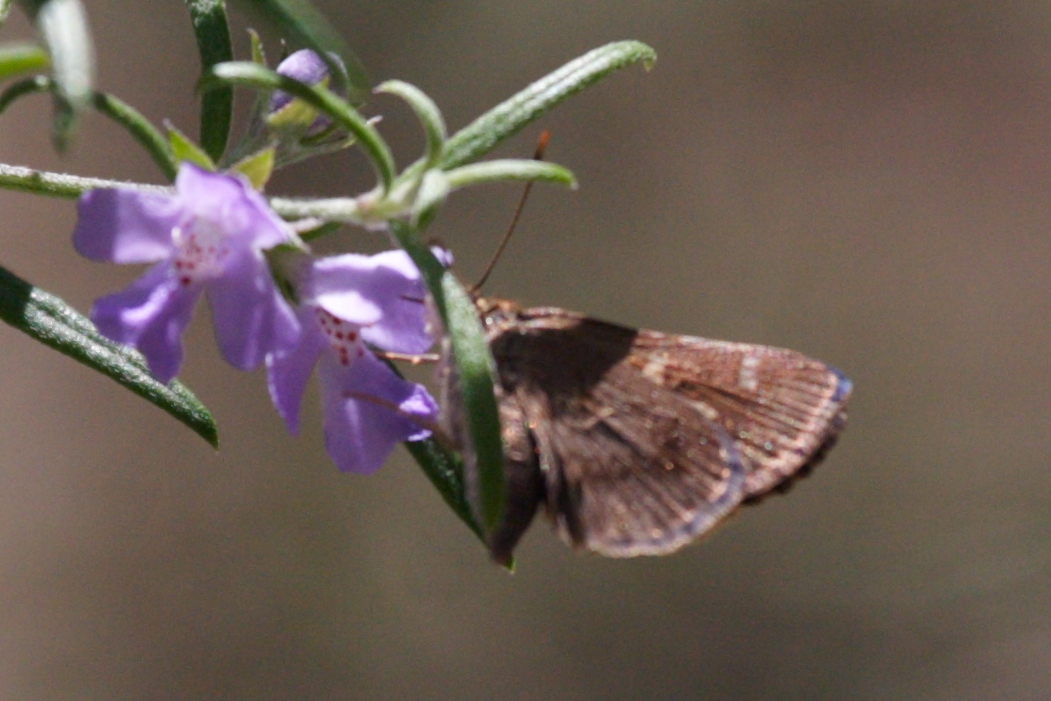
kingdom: Animalia
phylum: Arthropoda
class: Insecta
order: Lepidoptera
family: Hesperiidae
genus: Toxidia
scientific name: Toxidia parvulus
